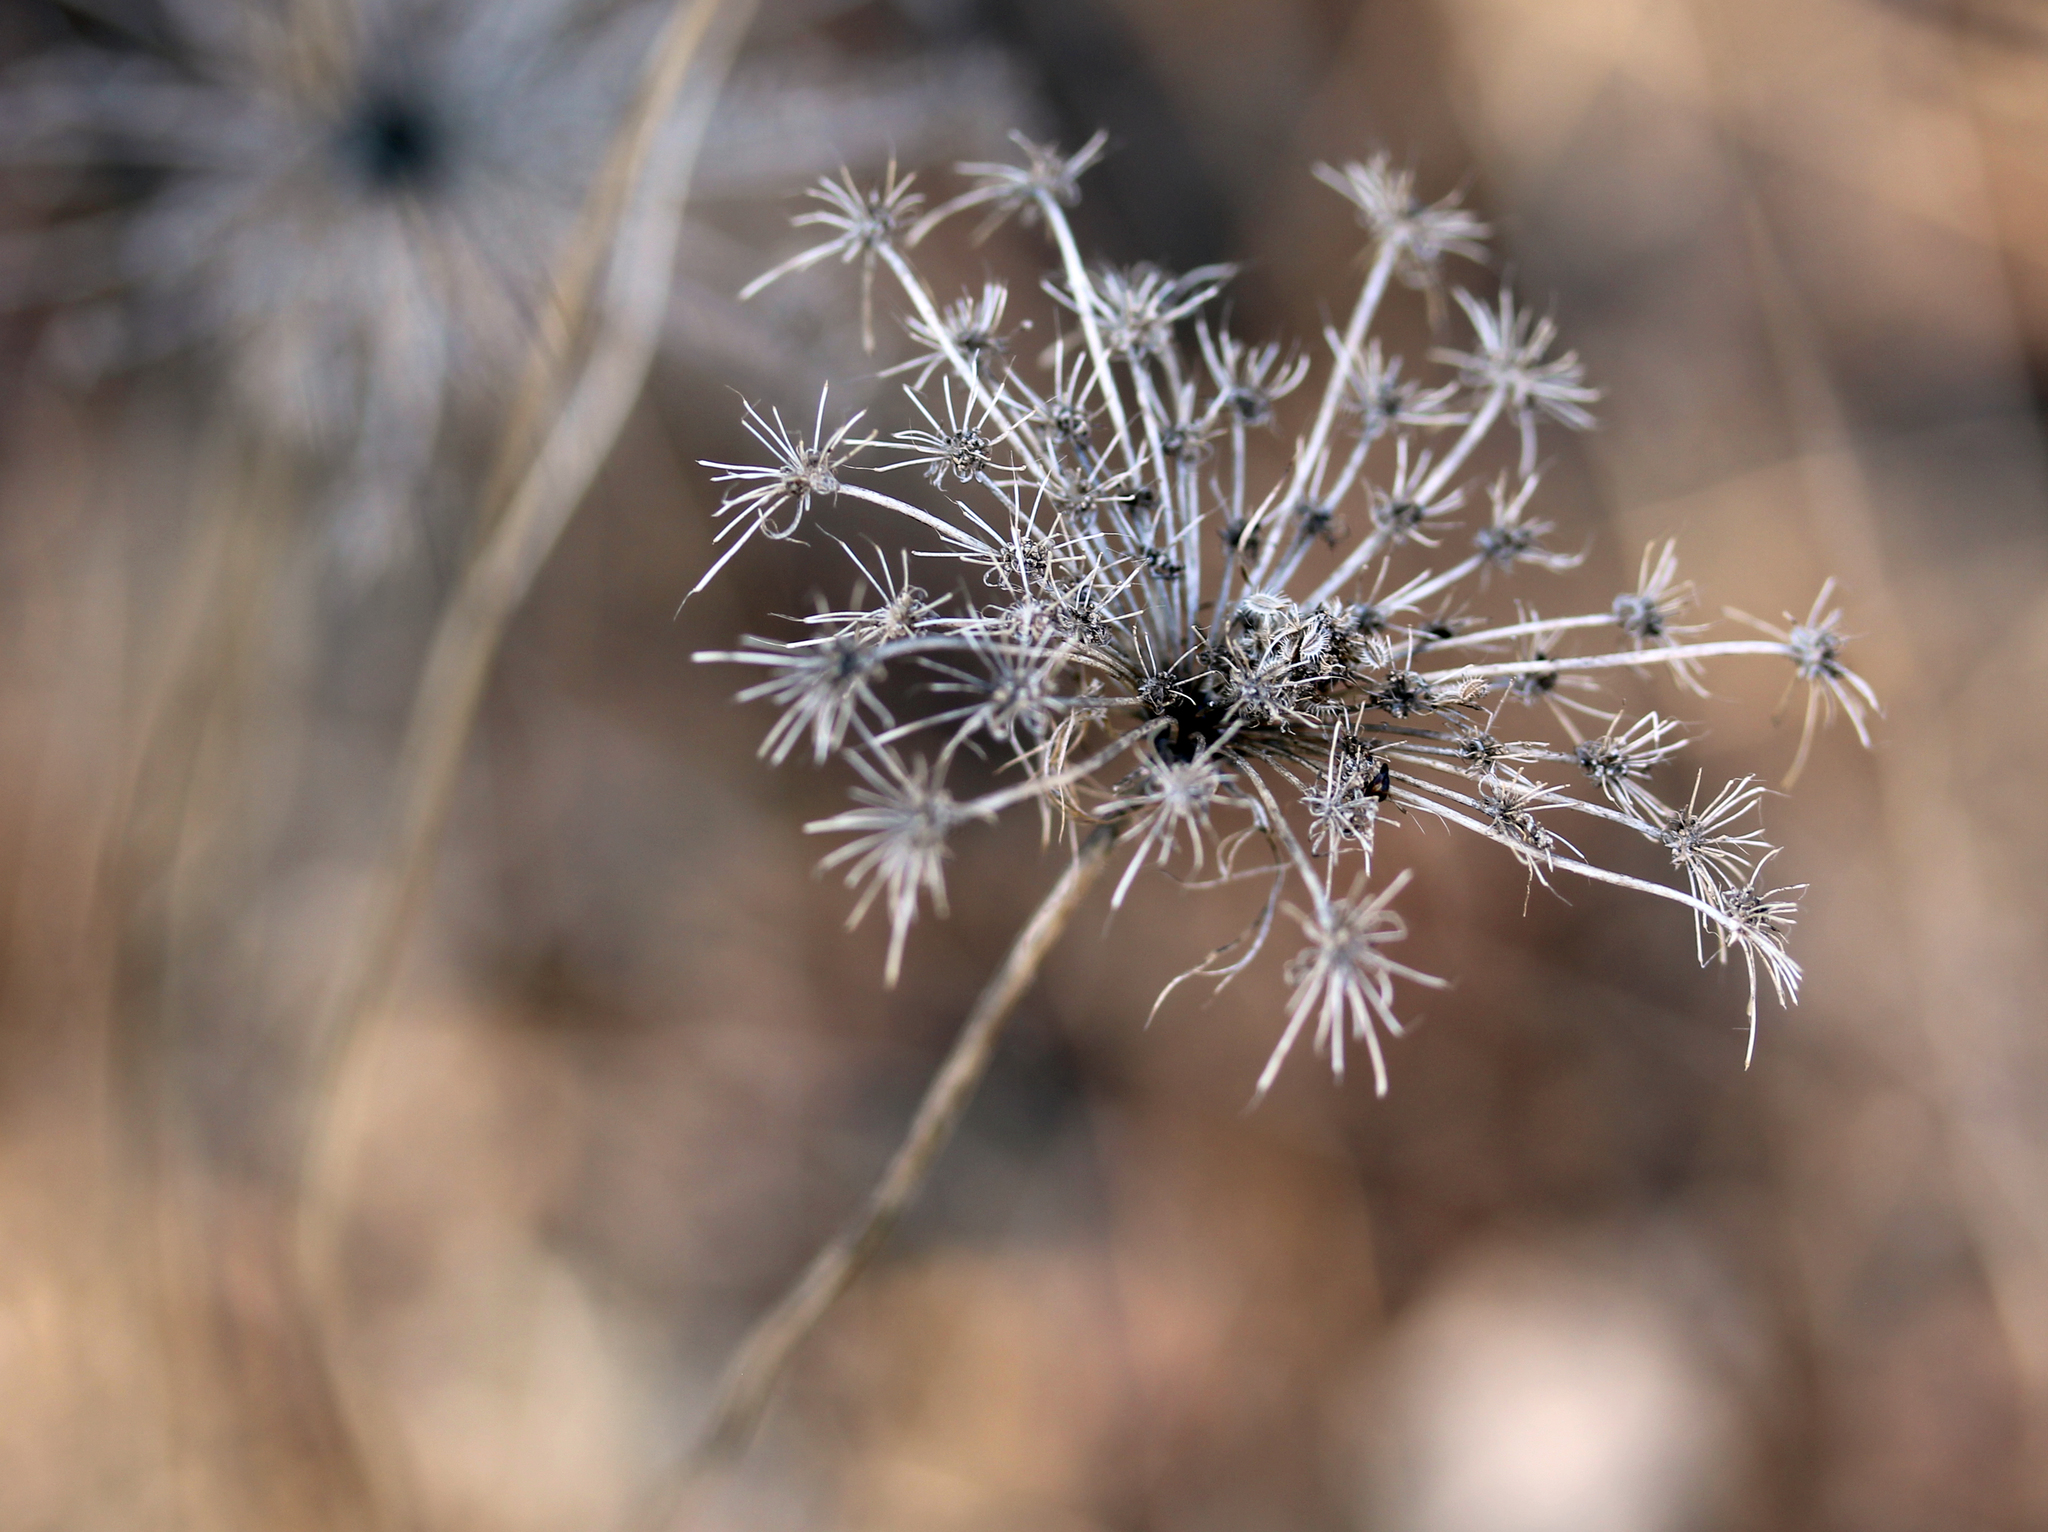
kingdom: Plantae
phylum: Tracheophyta
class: Magnoliopsida
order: Apiales
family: Apiaceae
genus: Daucus
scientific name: Daucus carota
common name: Wild carrot
